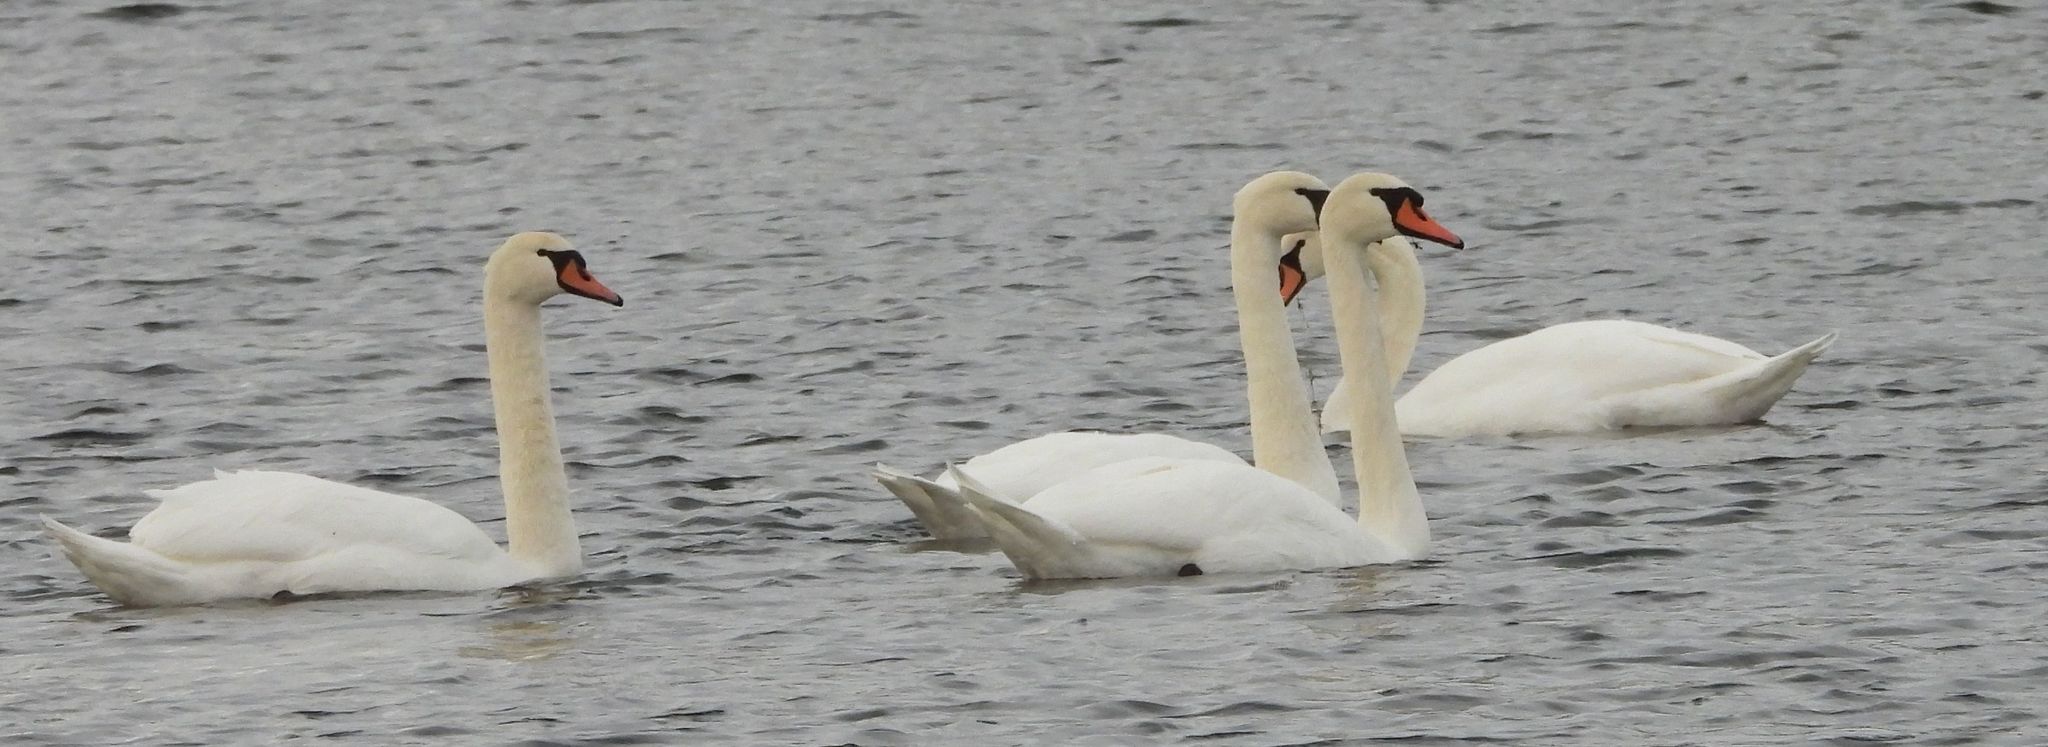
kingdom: Animalia
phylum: Chordata
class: Aves
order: Anseriformes
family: Anatidae
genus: Cygnus
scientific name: Cygnus olor
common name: Mute swan
